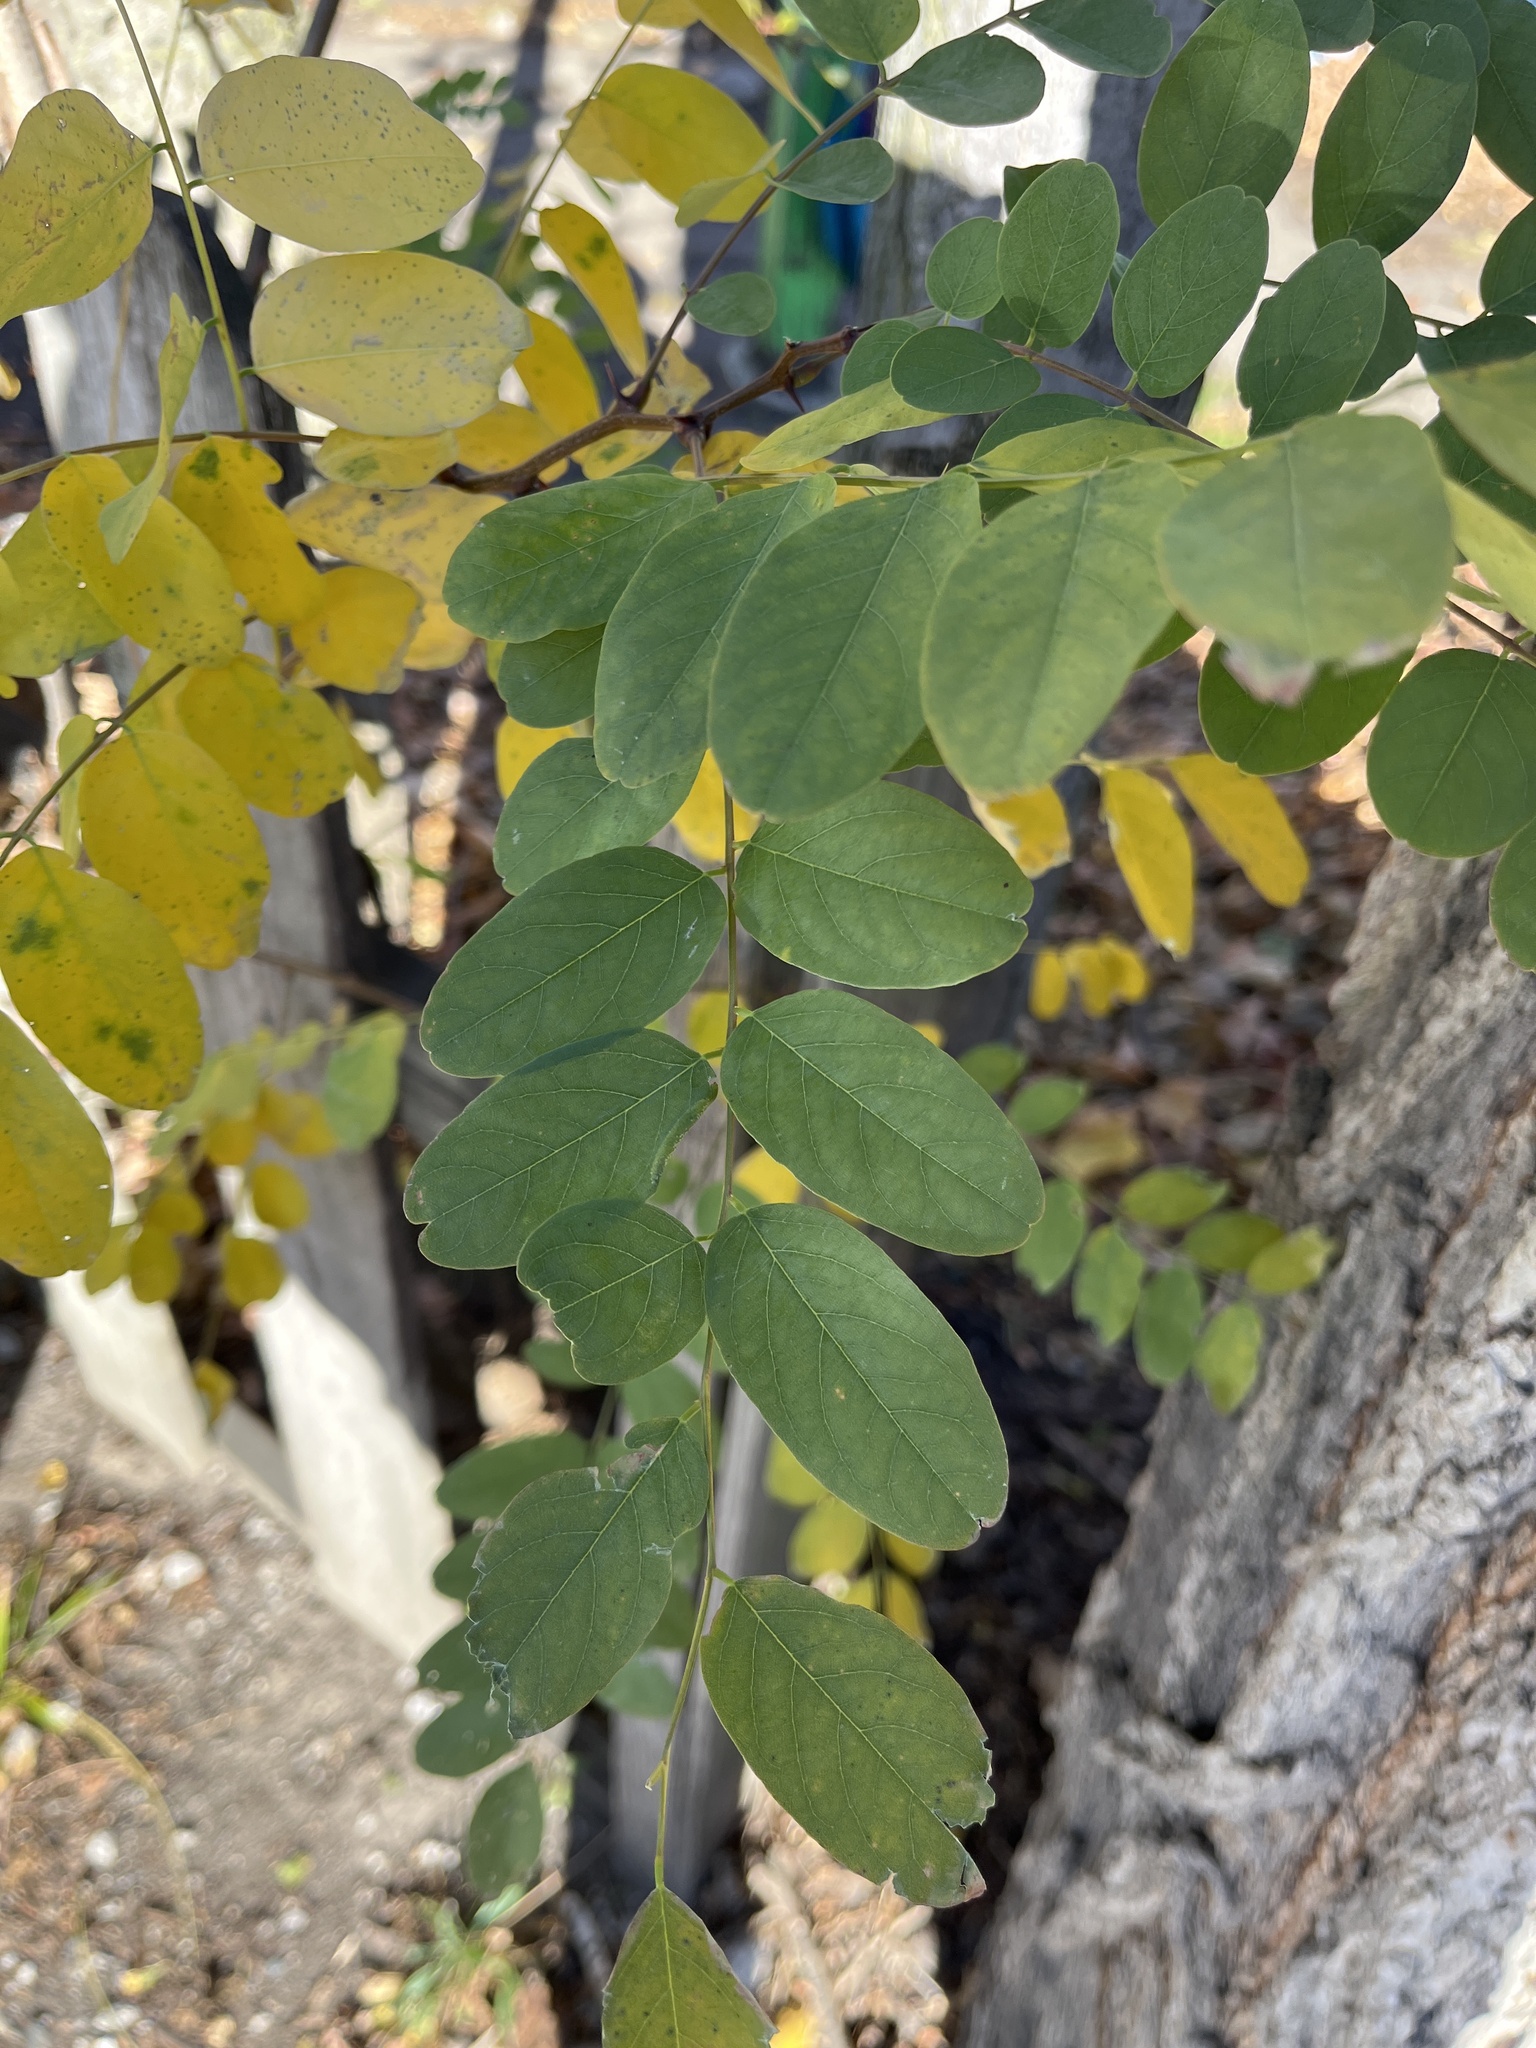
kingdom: Plantae
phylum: Tracheophyta
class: Magnoliopsida
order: Fabales
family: Fabaceae
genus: Robinia
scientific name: Robinia pseudoacacia
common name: Black locust
